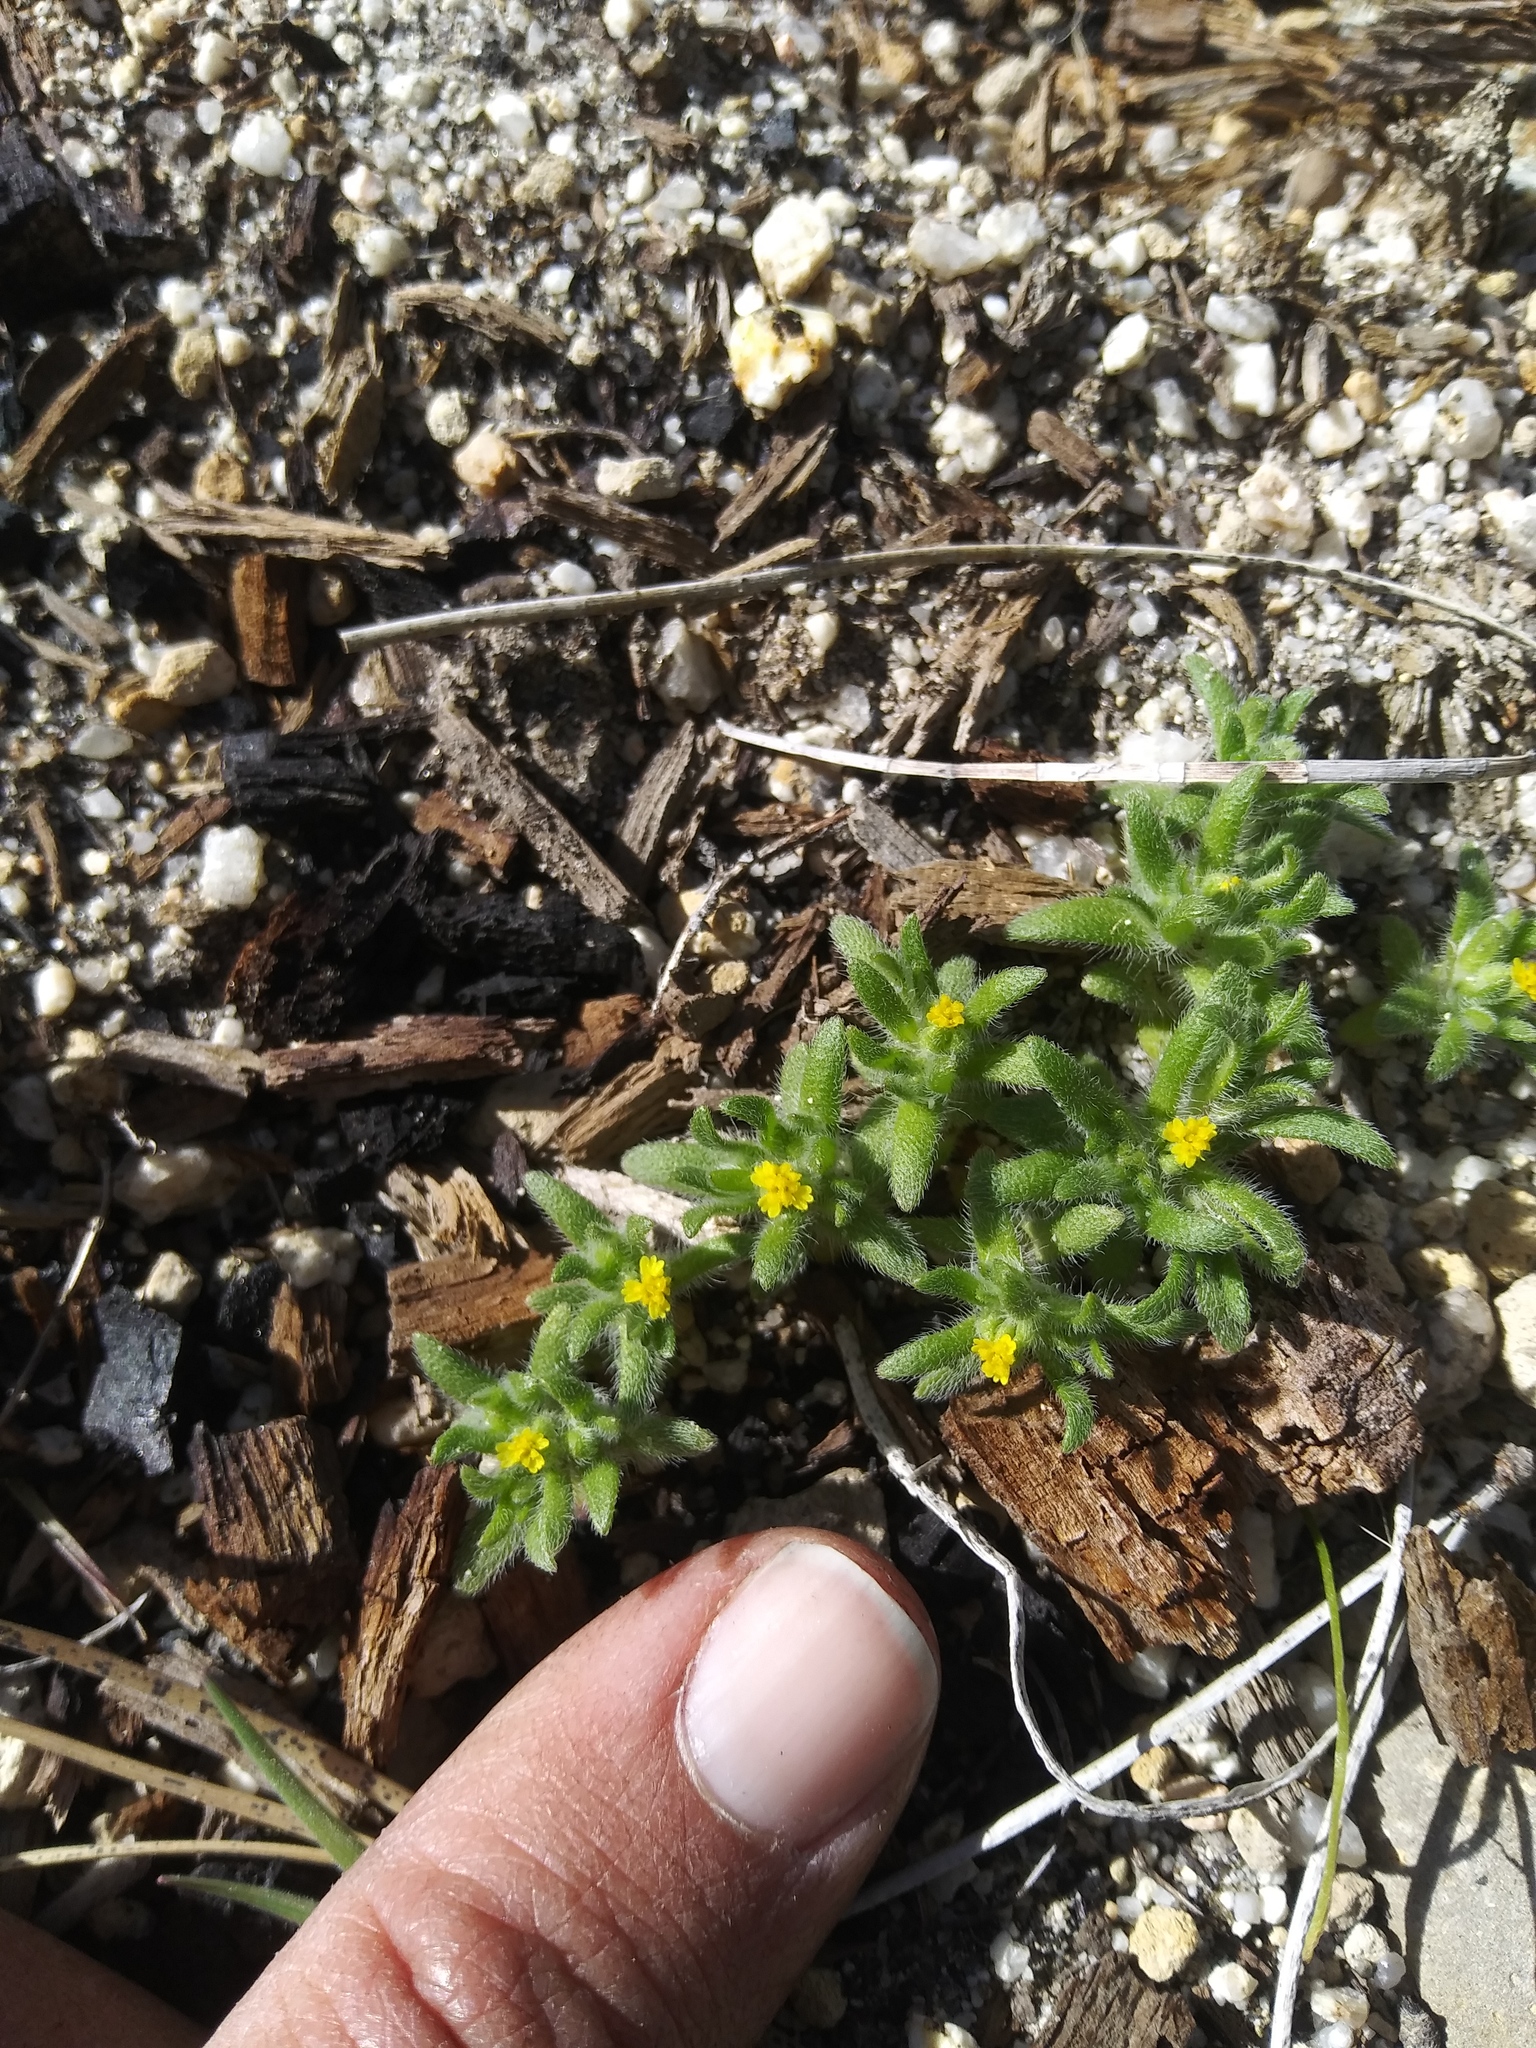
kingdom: Plantae
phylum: Tracheophyta
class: Magnoliopsida
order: Asterales
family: Asteraceae
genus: Hemizonella
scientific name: Hemizonella minima
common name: Opposite-leaved tarweed
